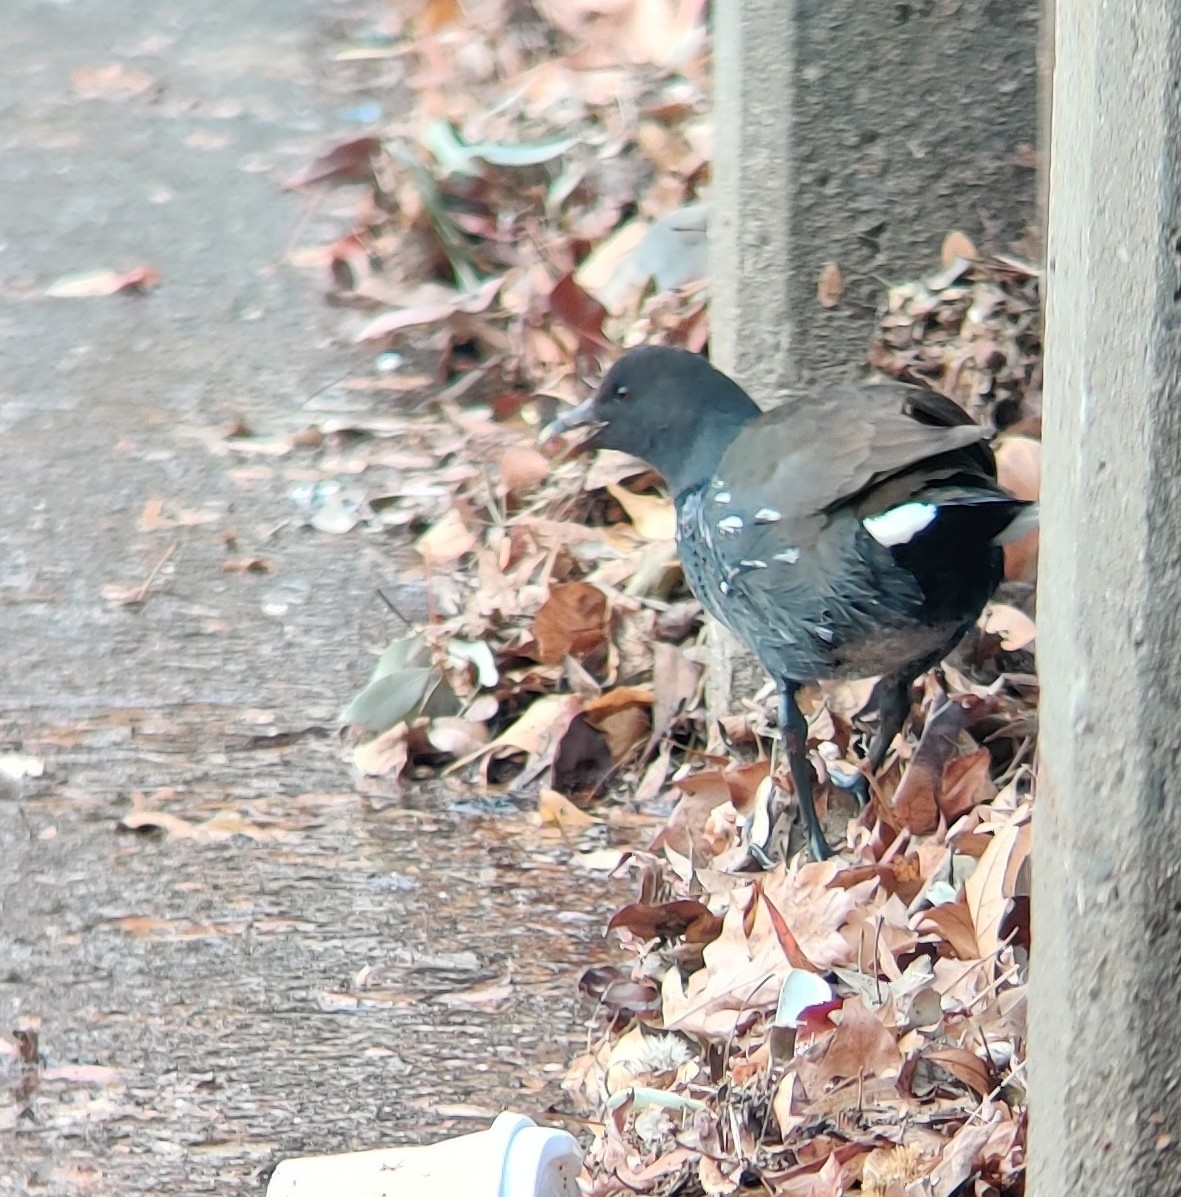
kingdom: Animalia
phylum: Chordata
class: Aves
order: Gruiformes
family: Rallidae
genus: Gallinula
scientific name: Gallinula tenebrosa
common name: Dusky moorhen
